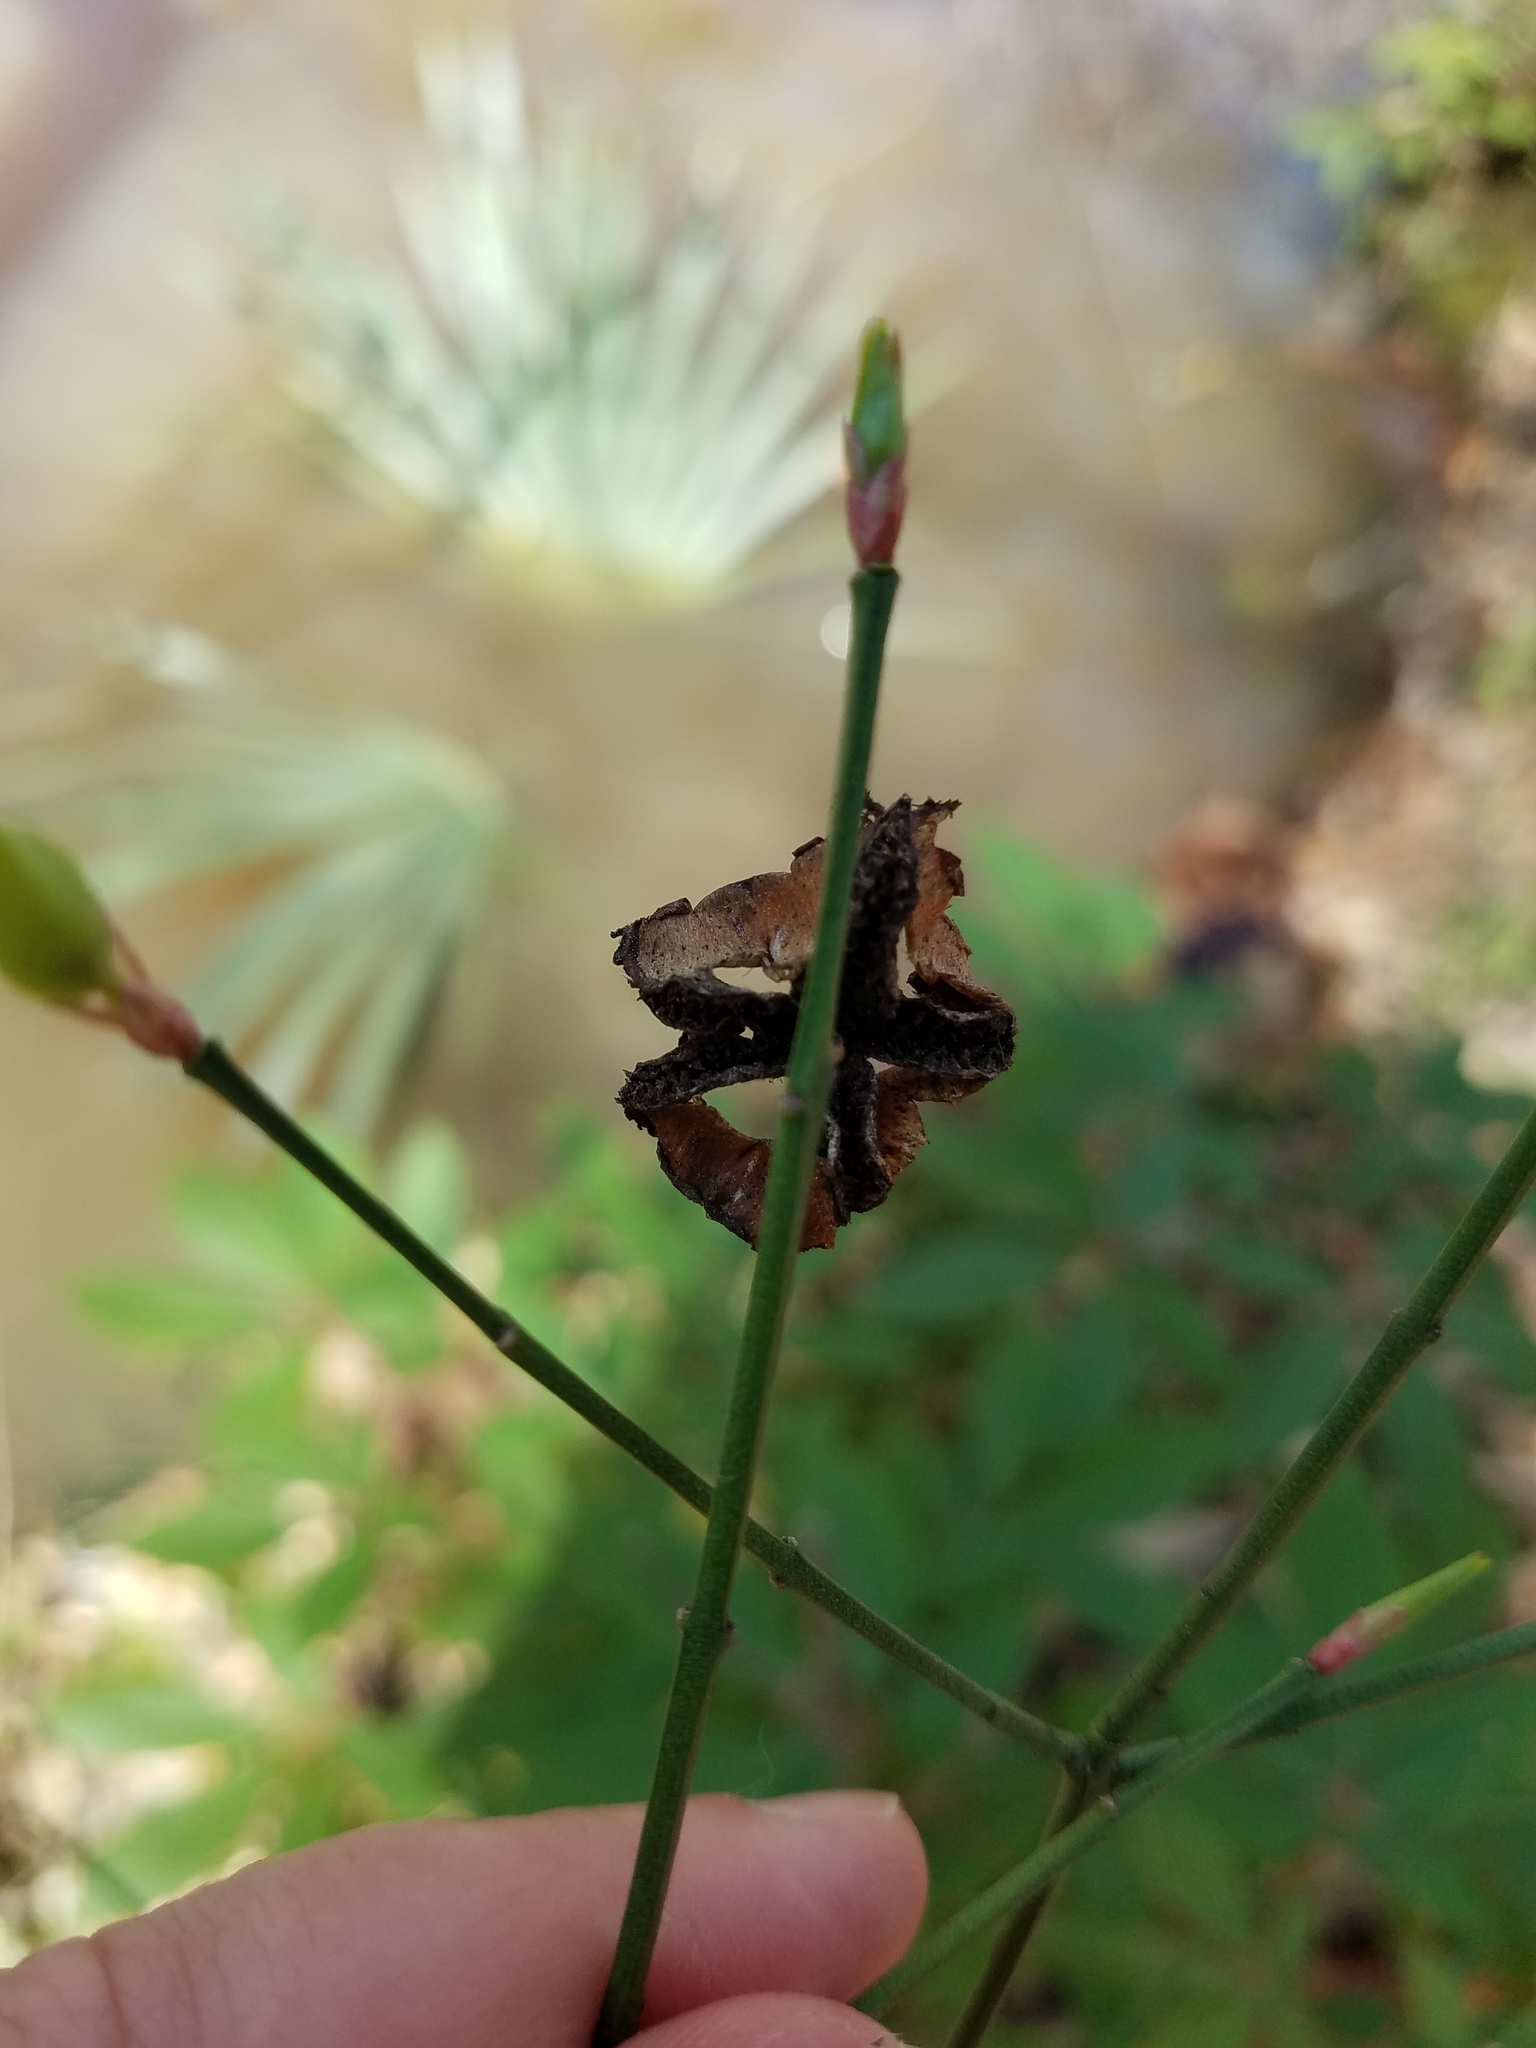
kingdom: Plantae
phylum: Tracheophyta
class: Magnoliopsida
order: Celastrales
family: Celastraceae
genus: Euonymus
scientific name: Euonymus americanus
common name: Bursting-heart
